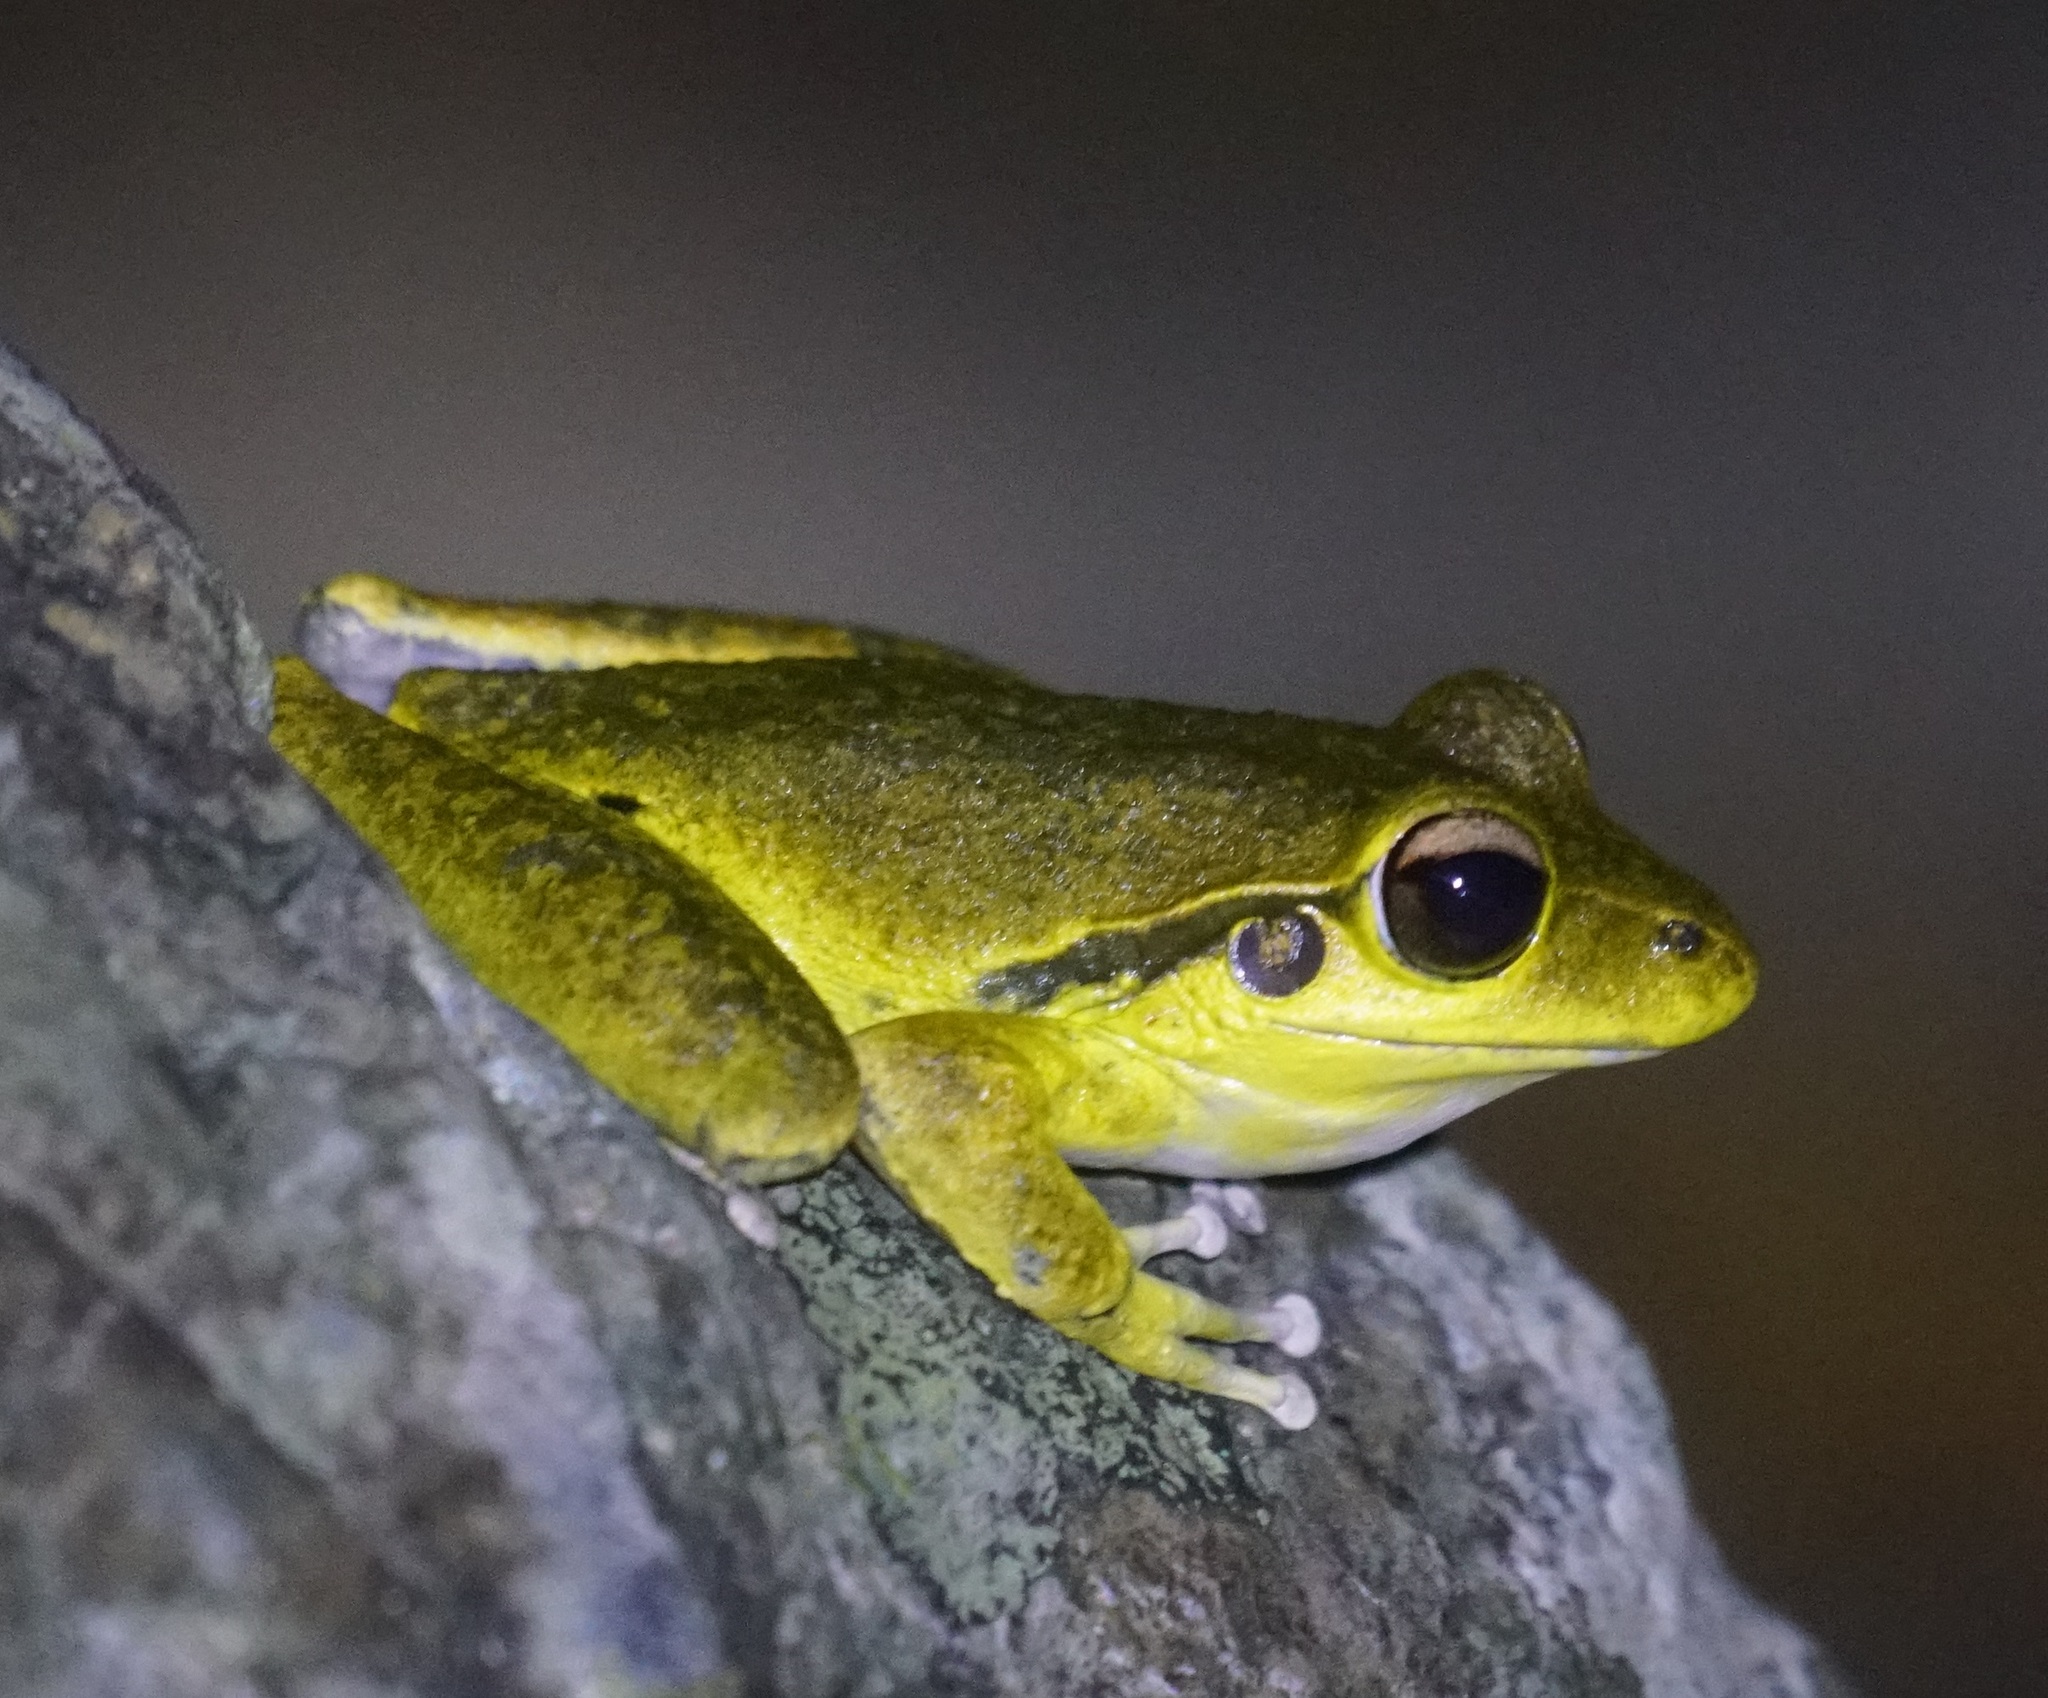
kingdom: Animalia
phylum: Chordata
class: Amphibia
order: Anura
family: Hylidae
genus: Ranoidea
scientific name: Ranoidea
